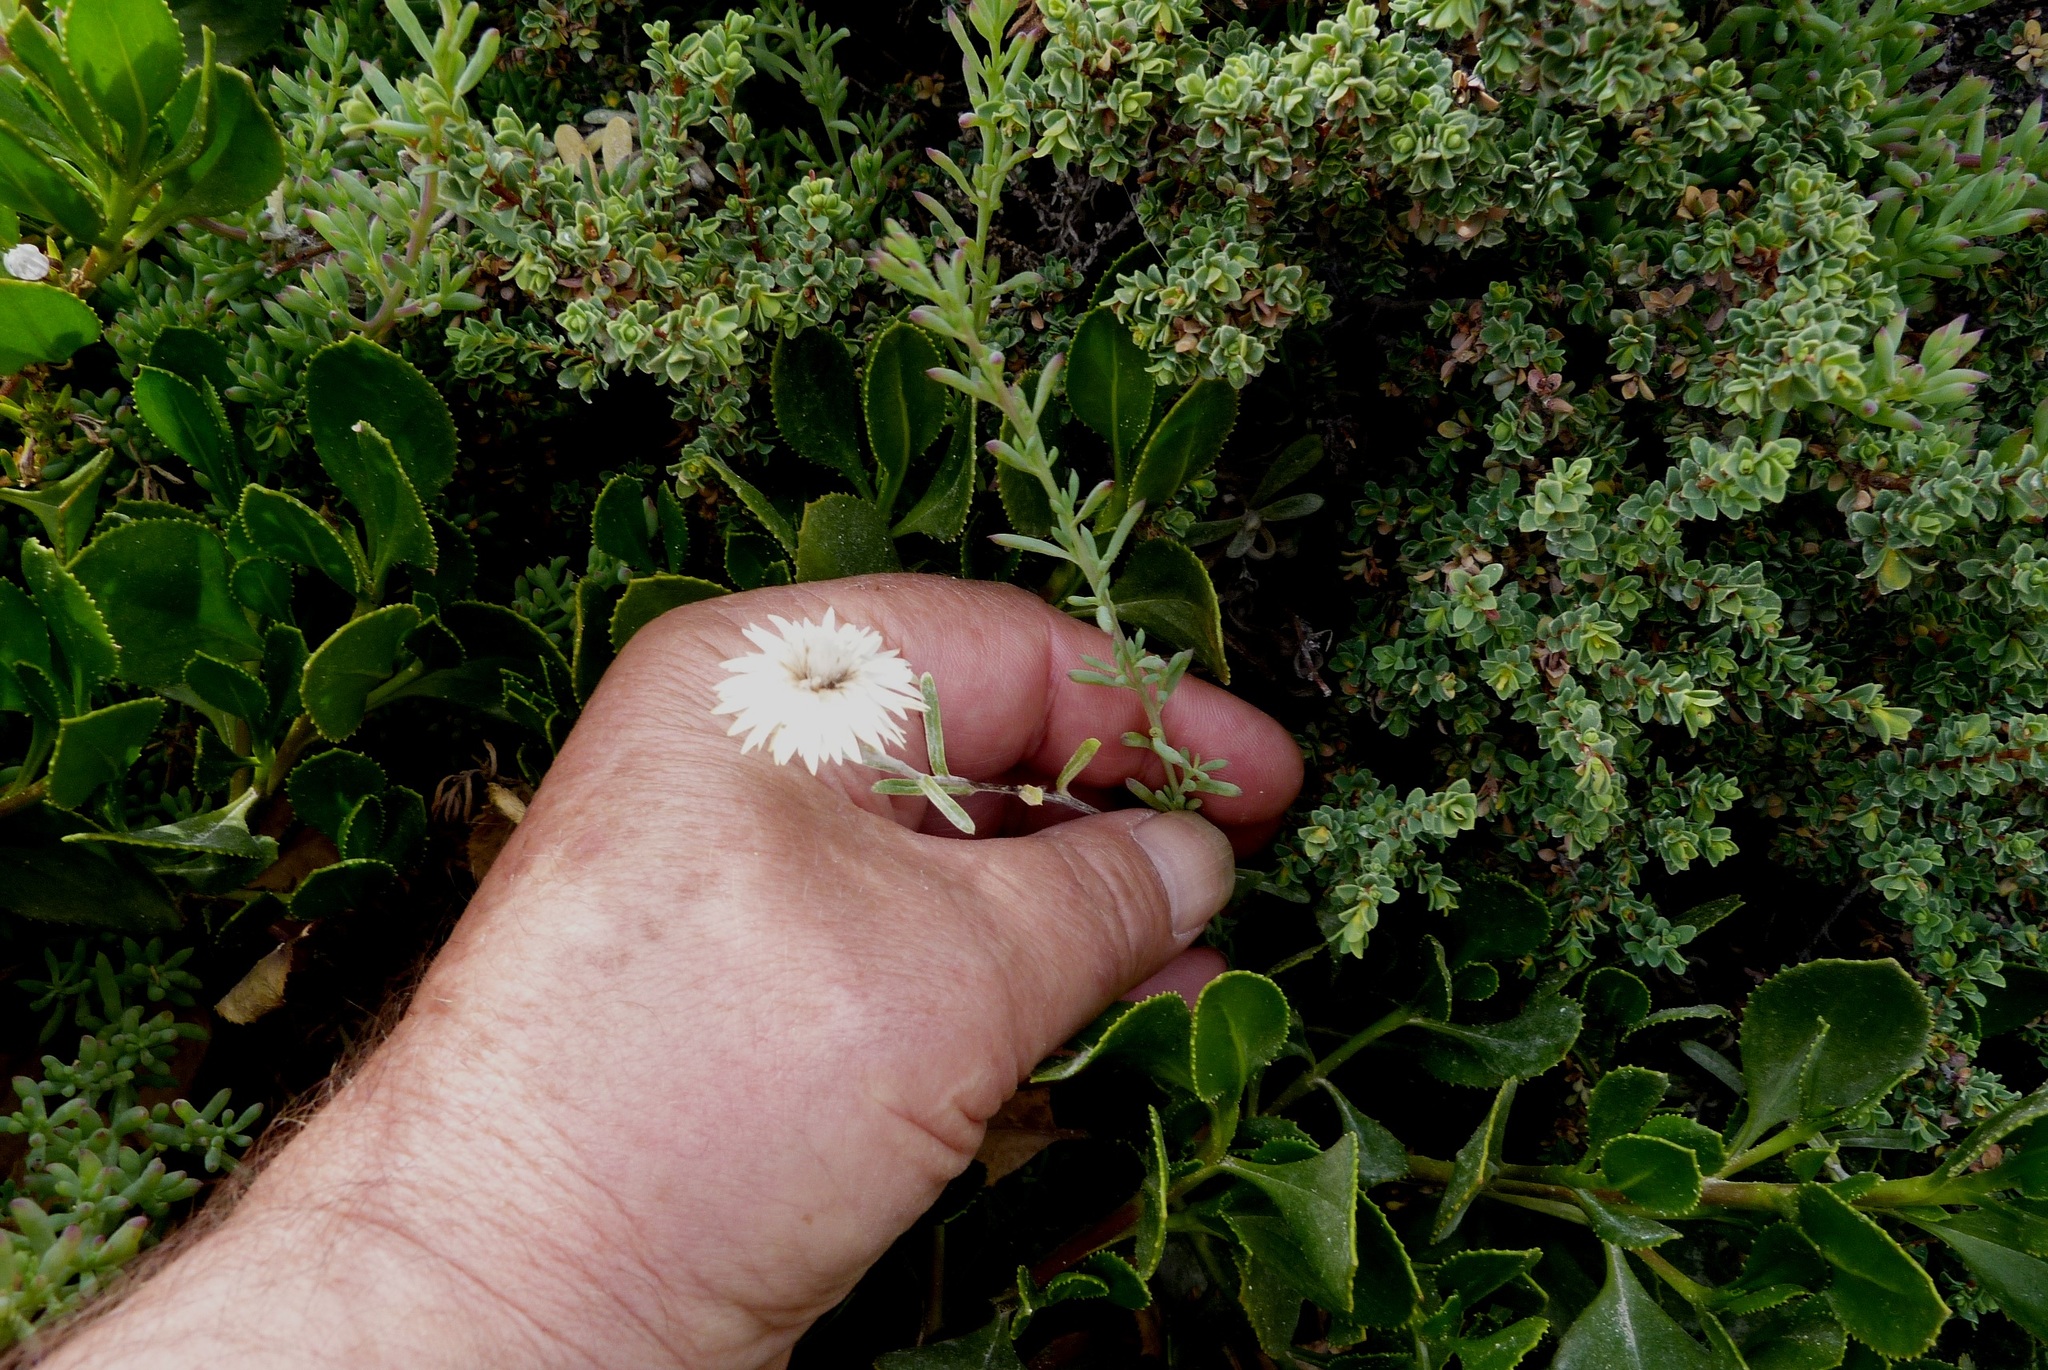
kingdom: Plantae
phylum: Tracheophyta
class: Magnoliopsida
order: Asterales
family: Asteraceae
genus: Argentipallium
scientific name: Argentipallium obtusifolium
